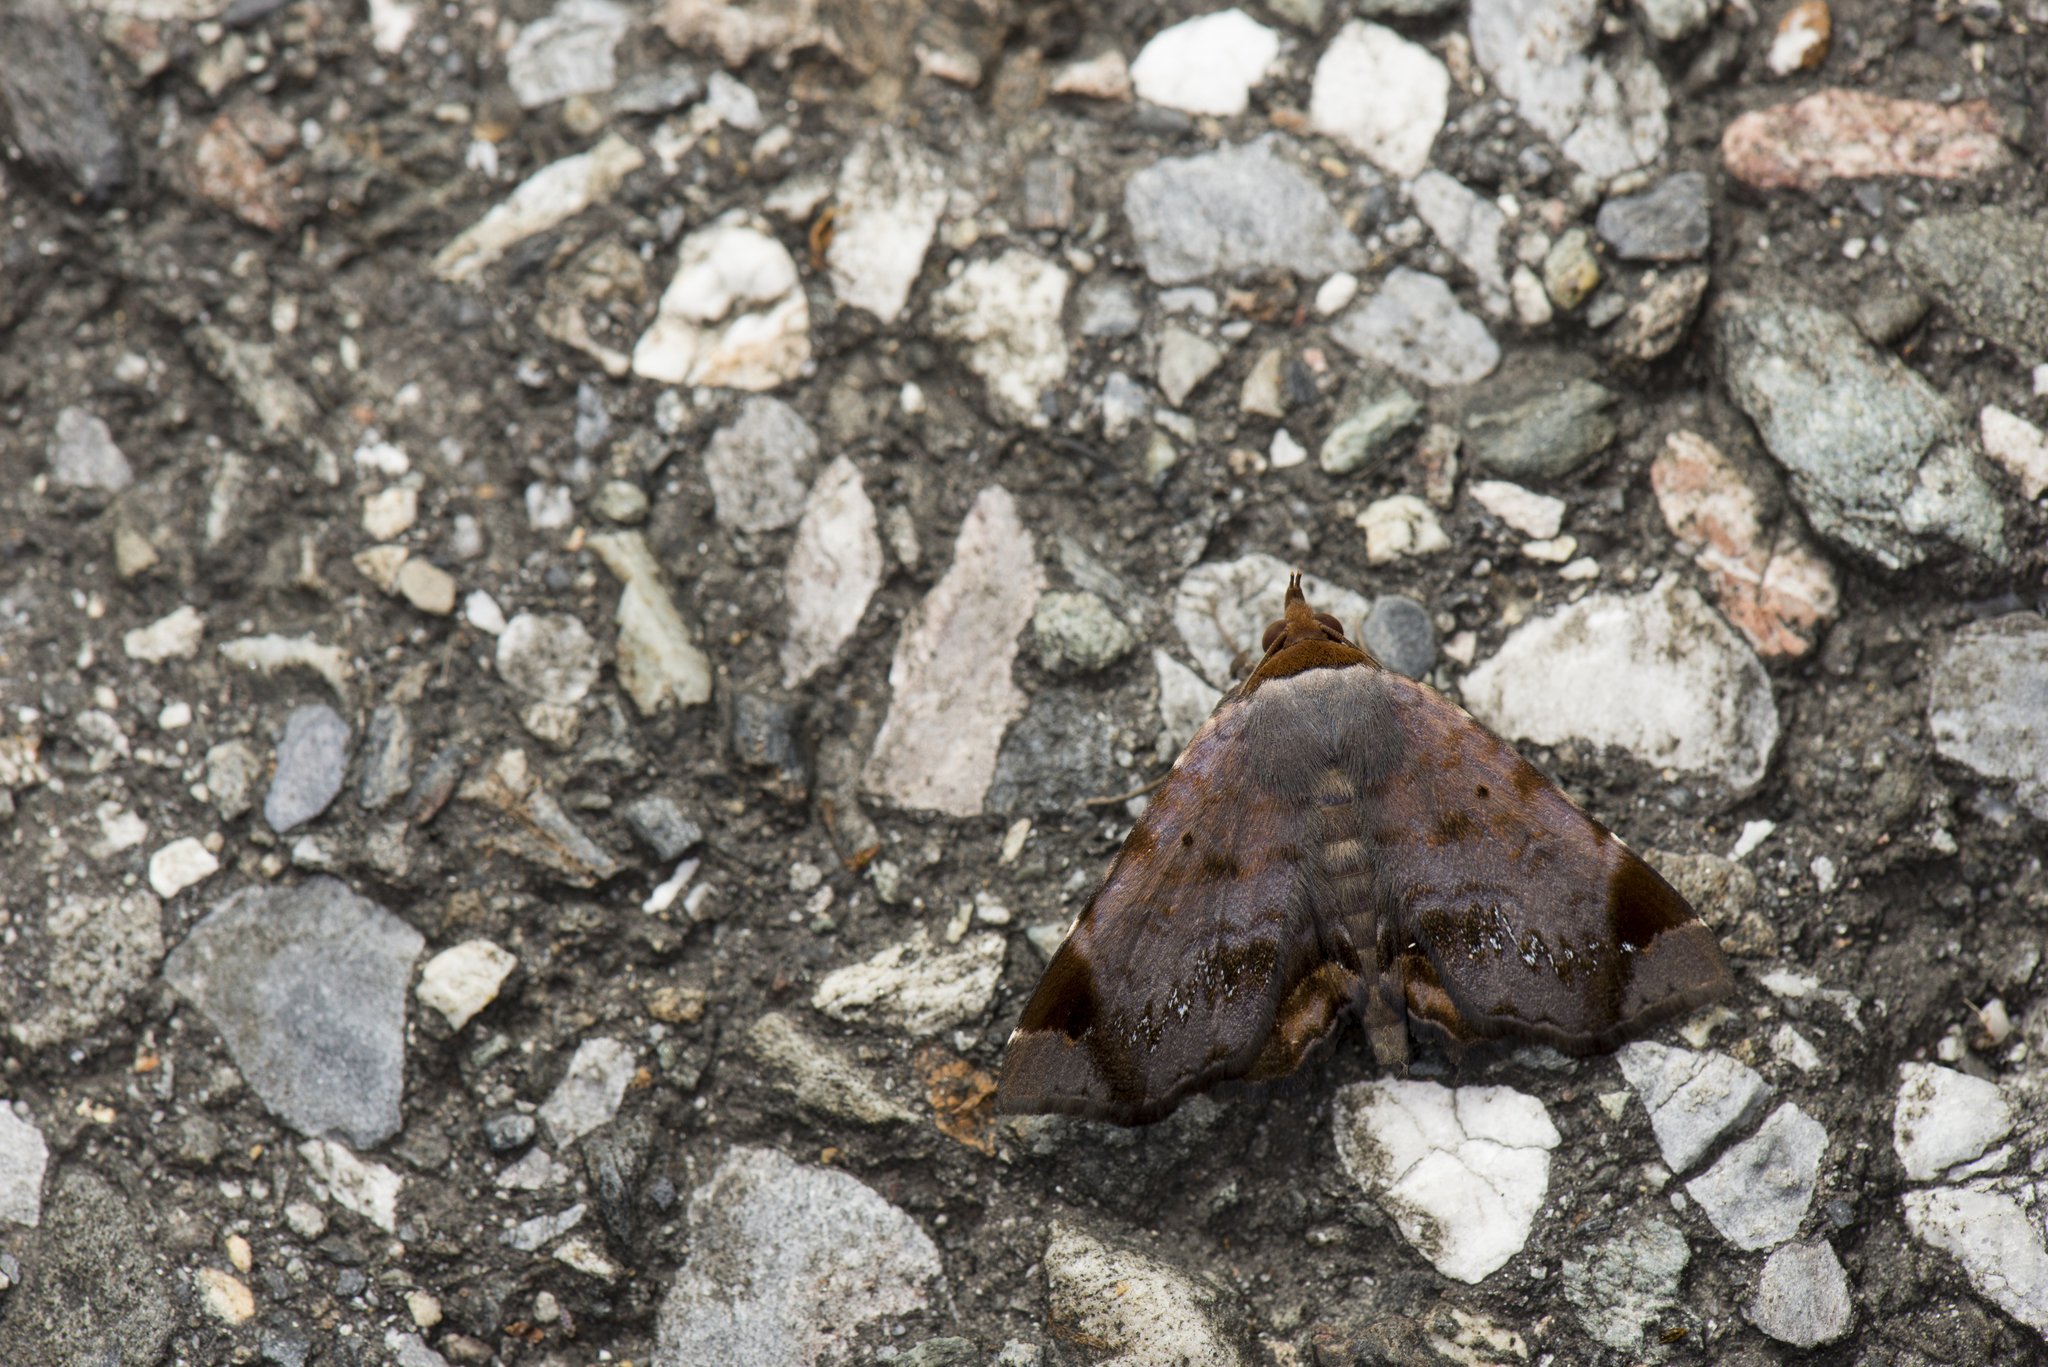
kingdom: Animalia
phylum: Arthropoda
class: Insecta
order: Lepidoptera
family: Erebidae
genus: Mecodina
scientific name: Mecodina albodentata
